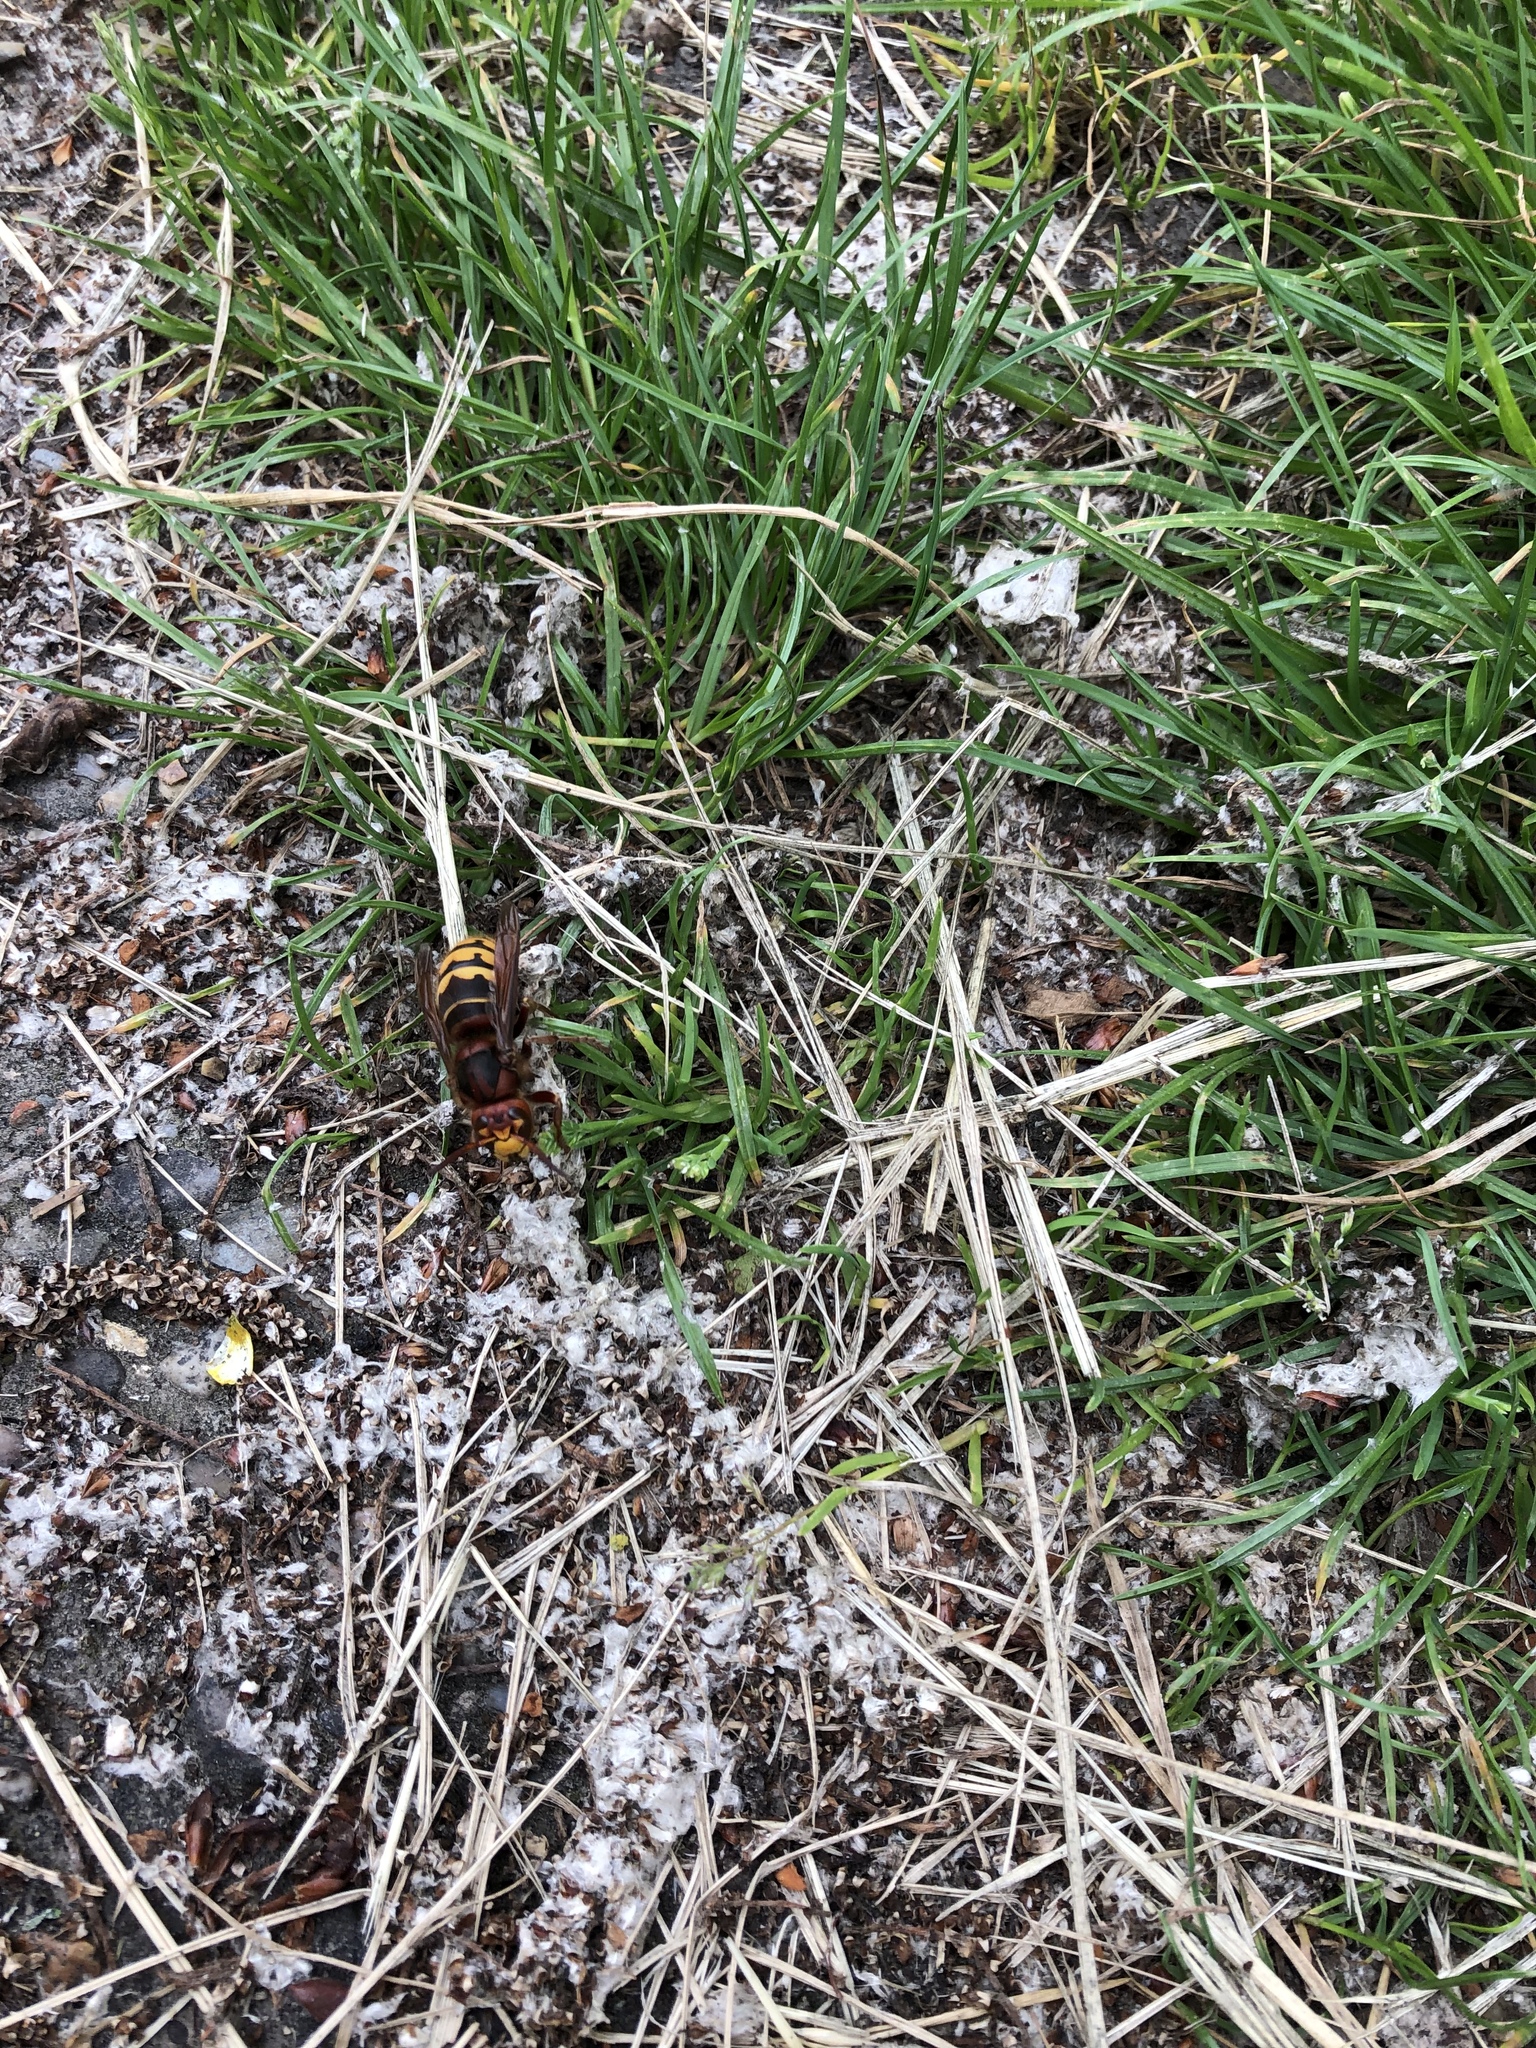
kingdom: Animalia
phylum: Arthropoda
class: Insecta
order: Hymenoptera
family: Vespidae
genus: Vespa
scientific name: Vespa crabro
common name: Hornet
